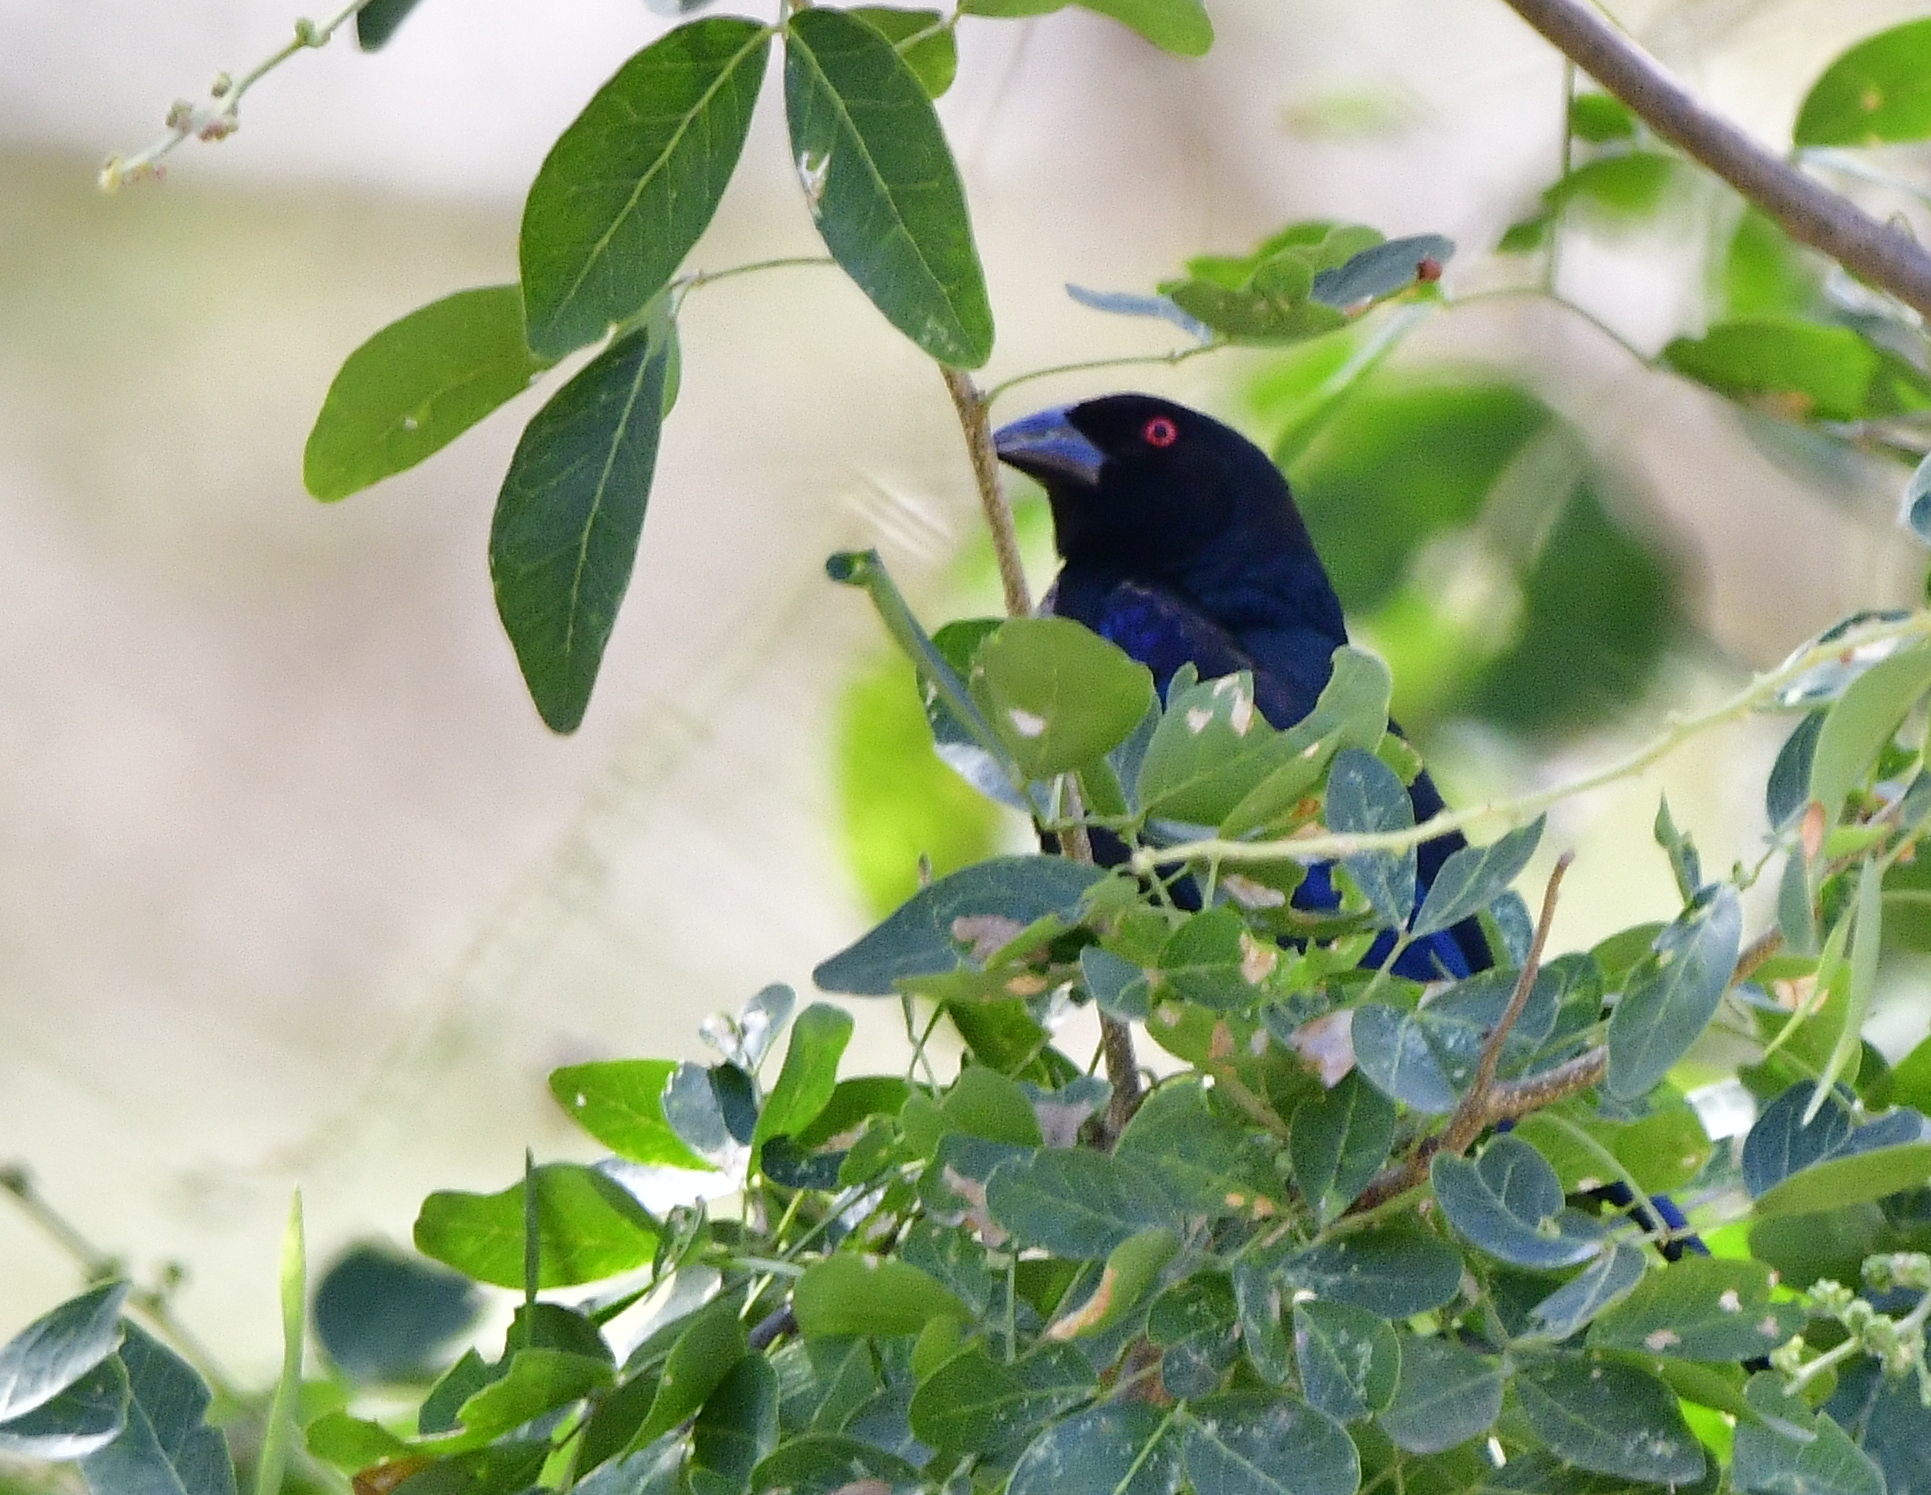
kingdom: Animalia
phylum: Chordata
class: Aves
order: Passeriformes
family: Icteridae
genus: Molothrus
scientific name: Molothrus aeneus
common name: Bronzed cowbird
